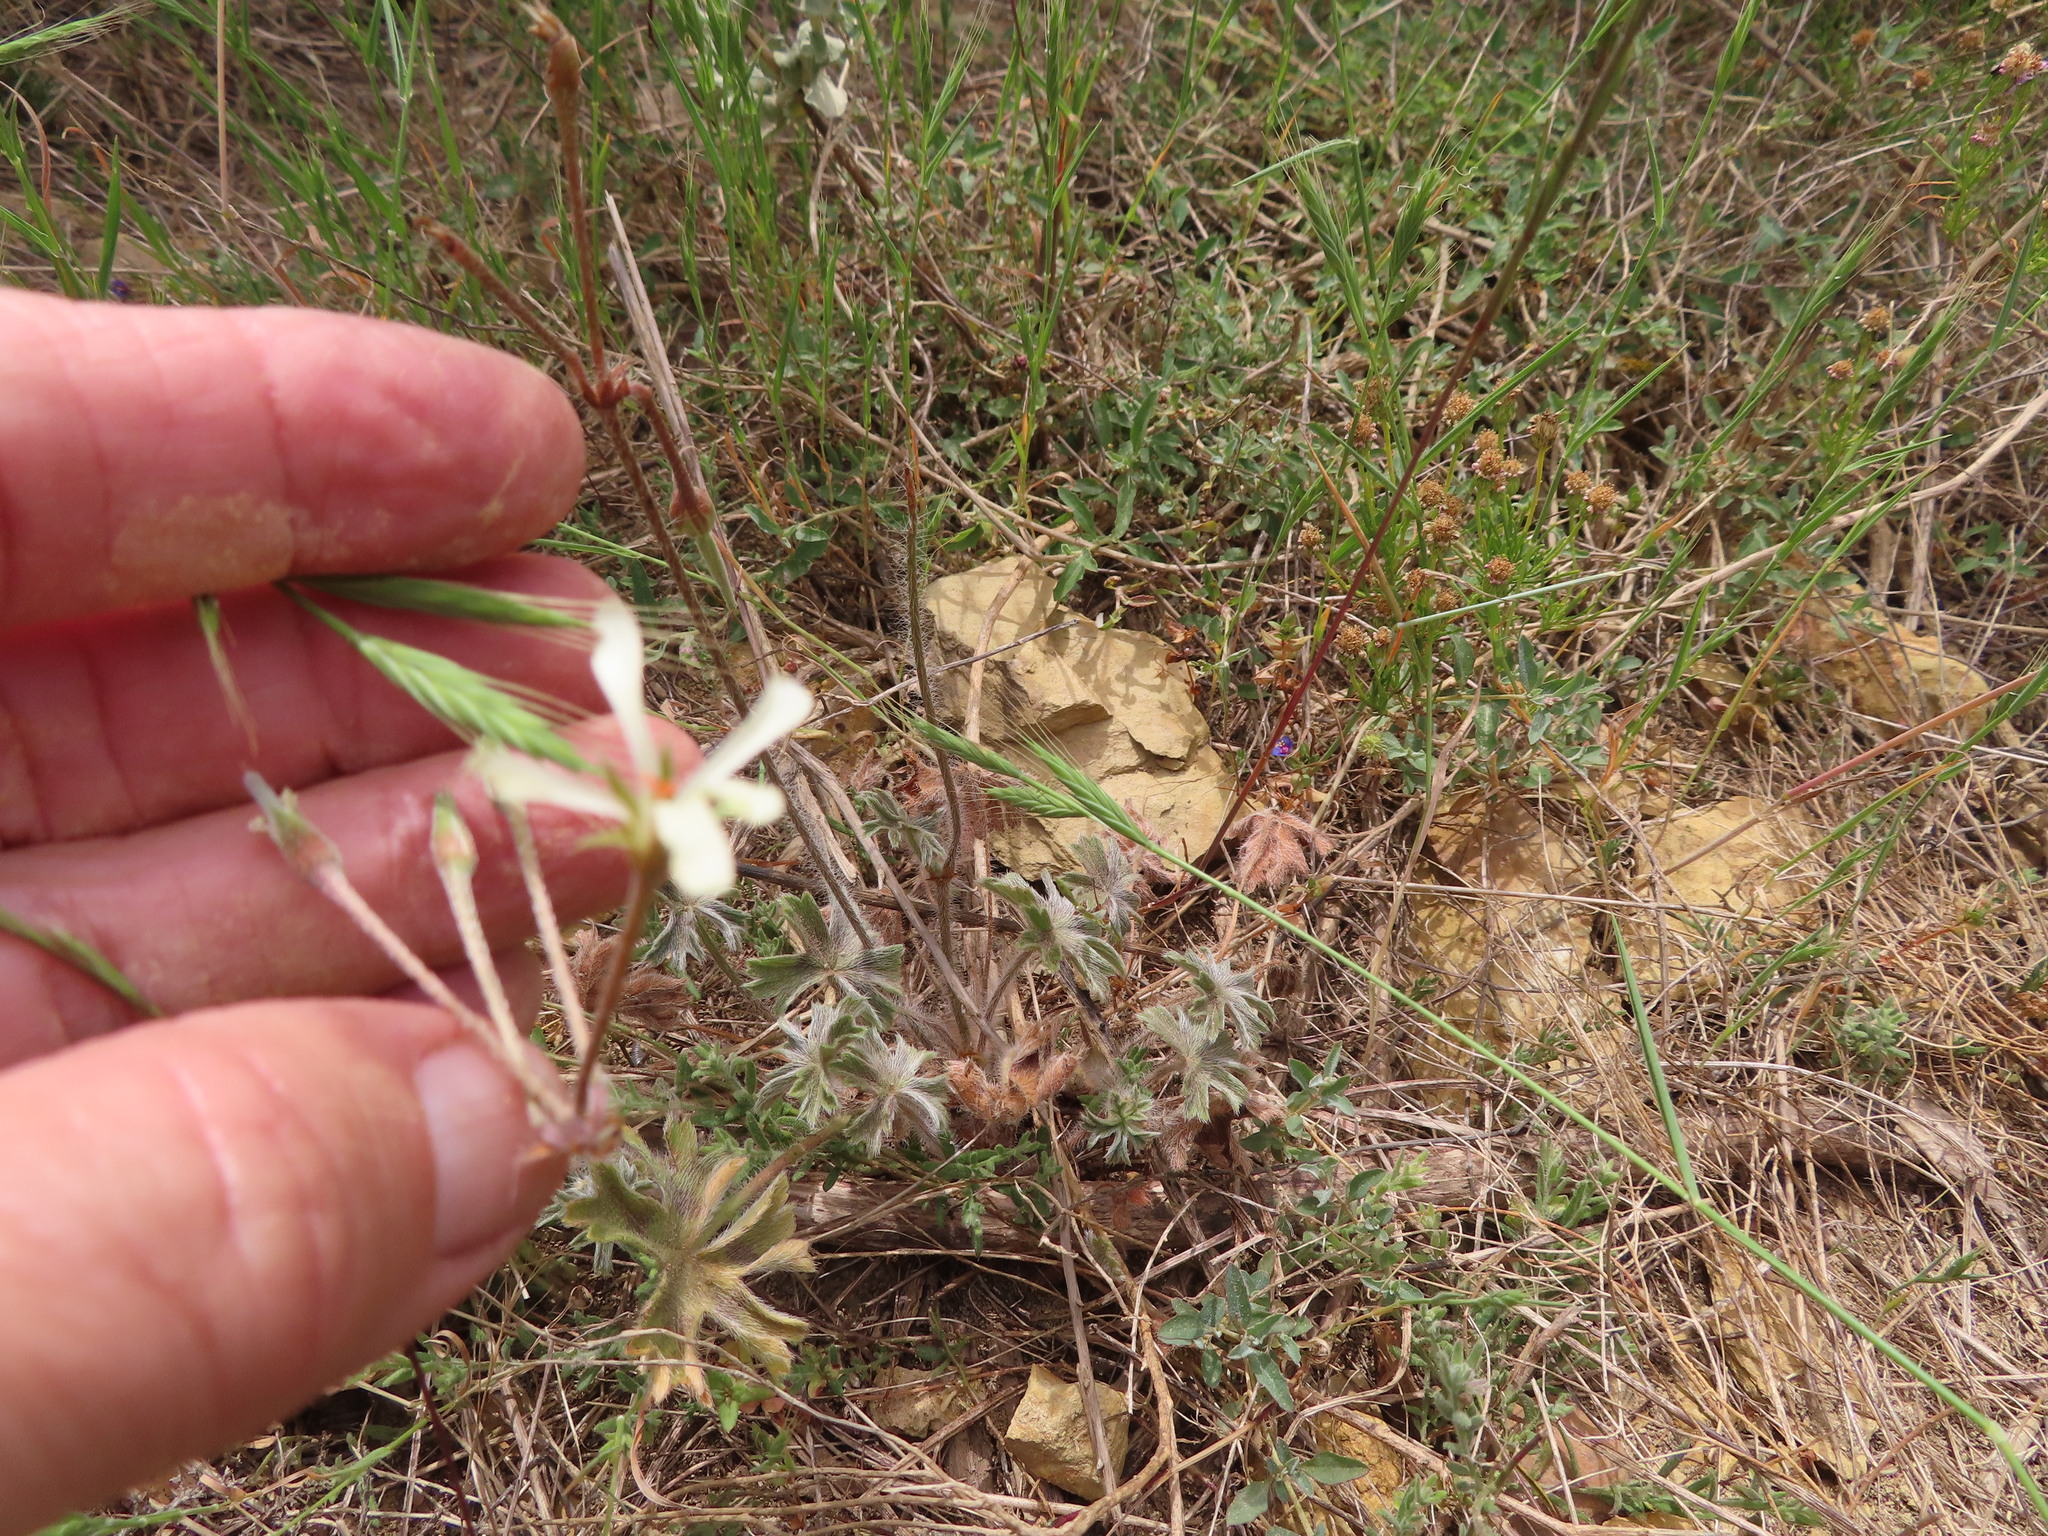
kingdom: Plantae
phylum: Tracheophyta
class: Magnoliopsida
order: Geraniales
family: Geraniaceae
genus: Pelargonium
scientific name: Pelargonium alchemilloides
